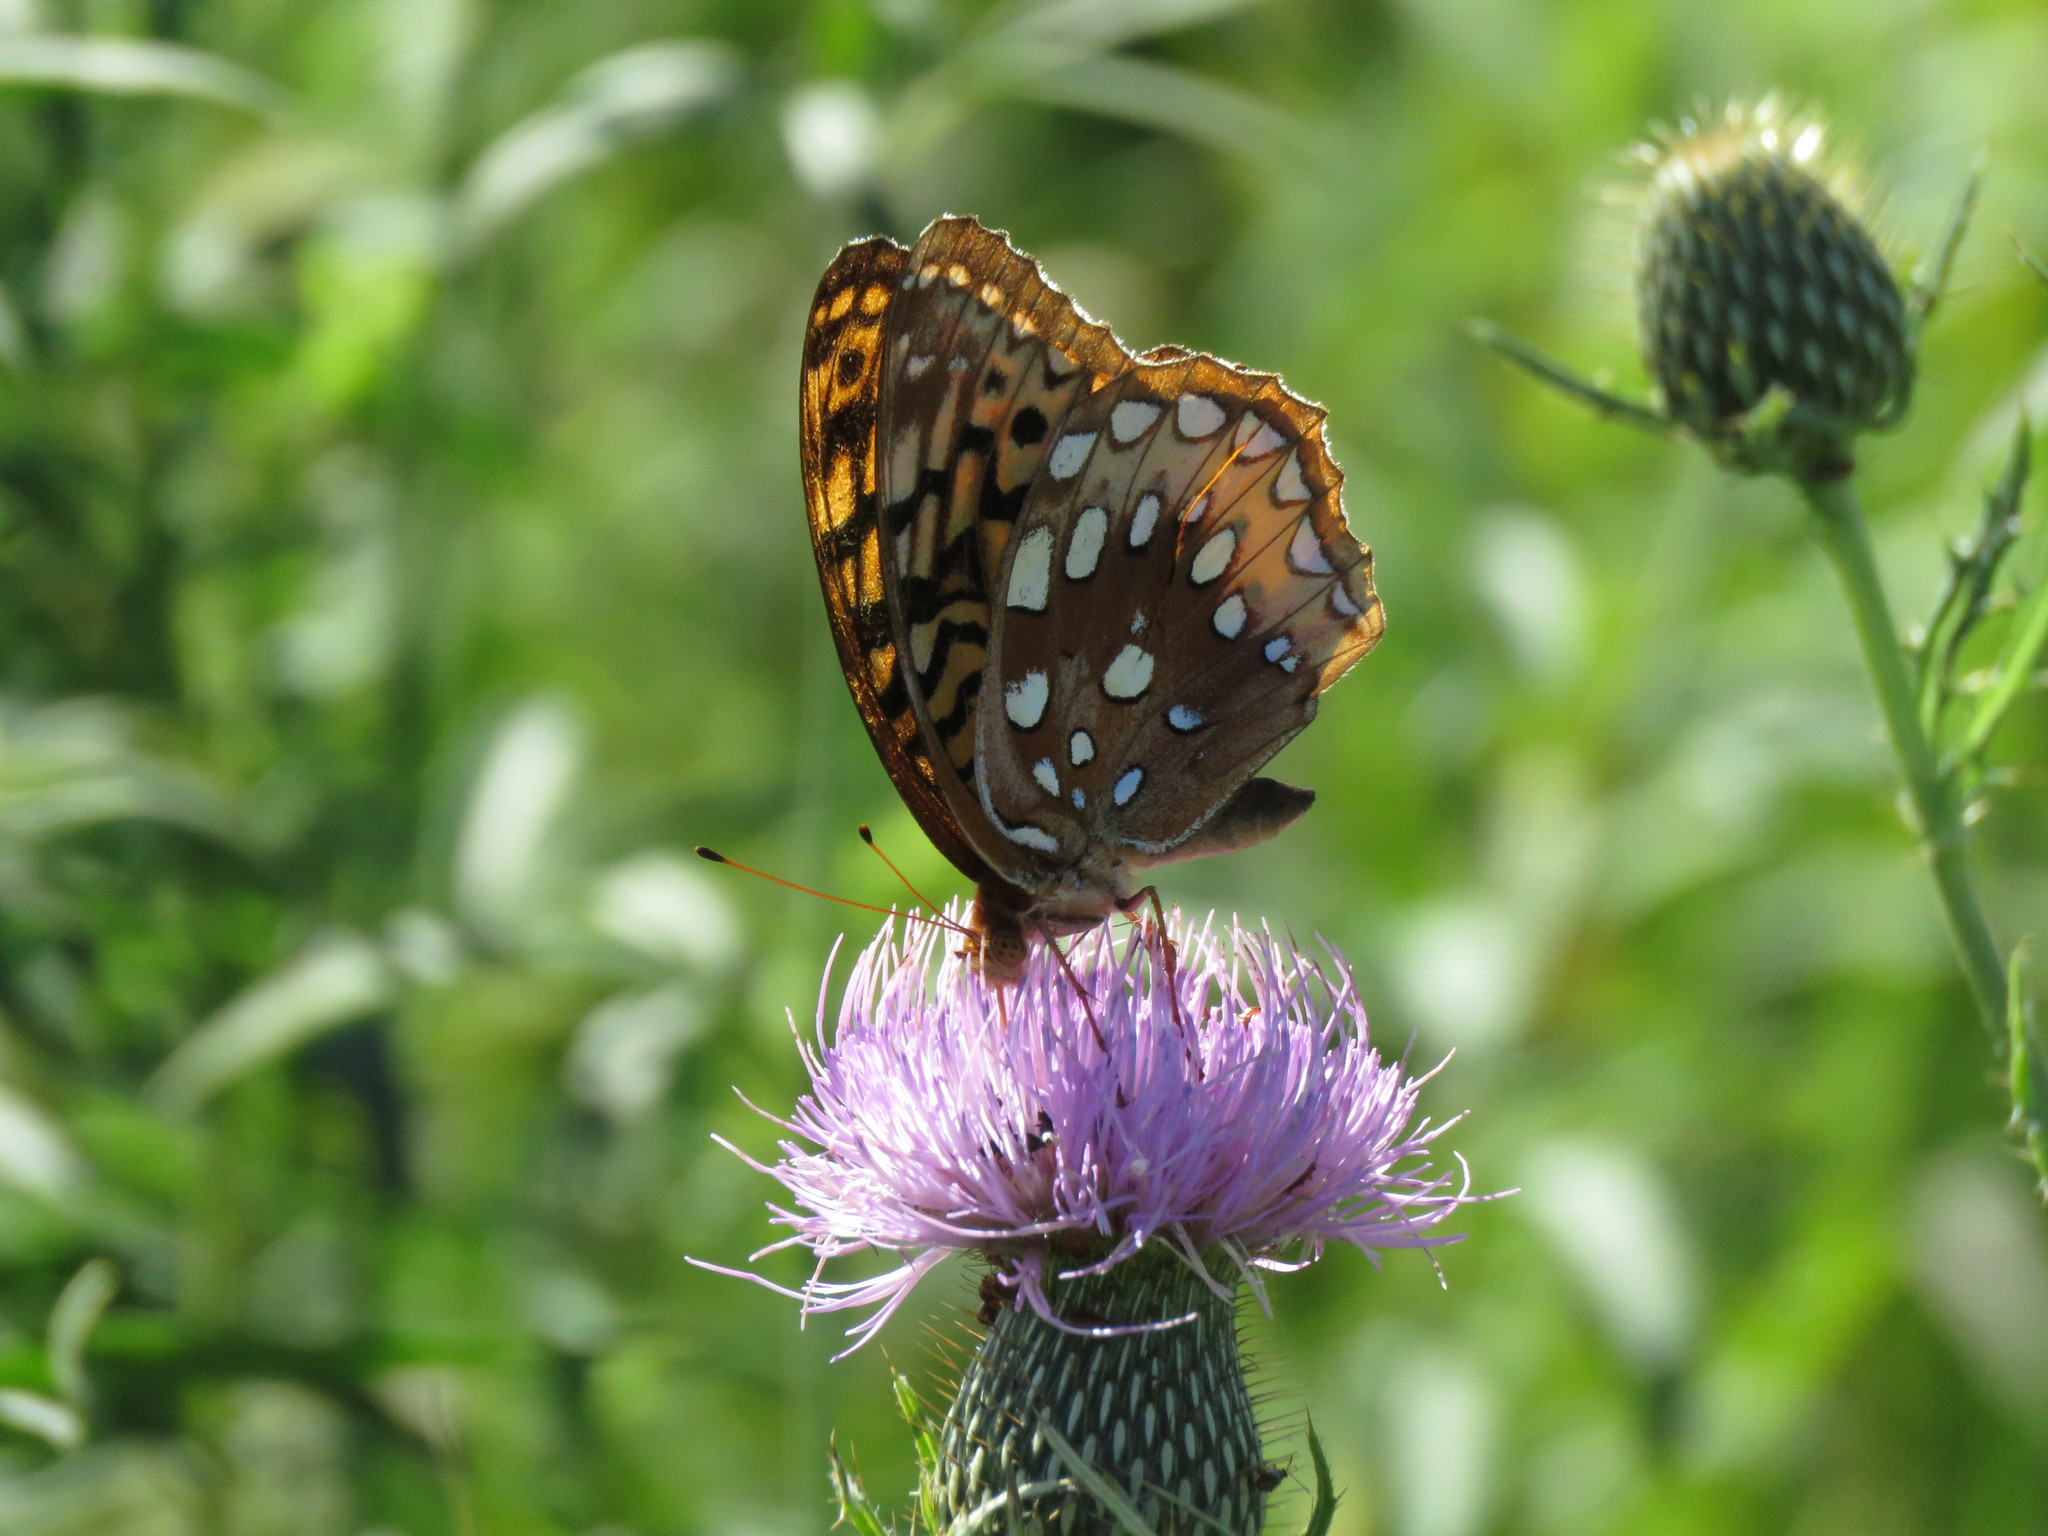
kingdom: Animalia
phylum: Arthropoda
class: Insecta
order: Lepidoptera
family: Nymphalidae
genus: Speyeria
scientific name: Speyeria cybele
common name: Great spangled fritillary
